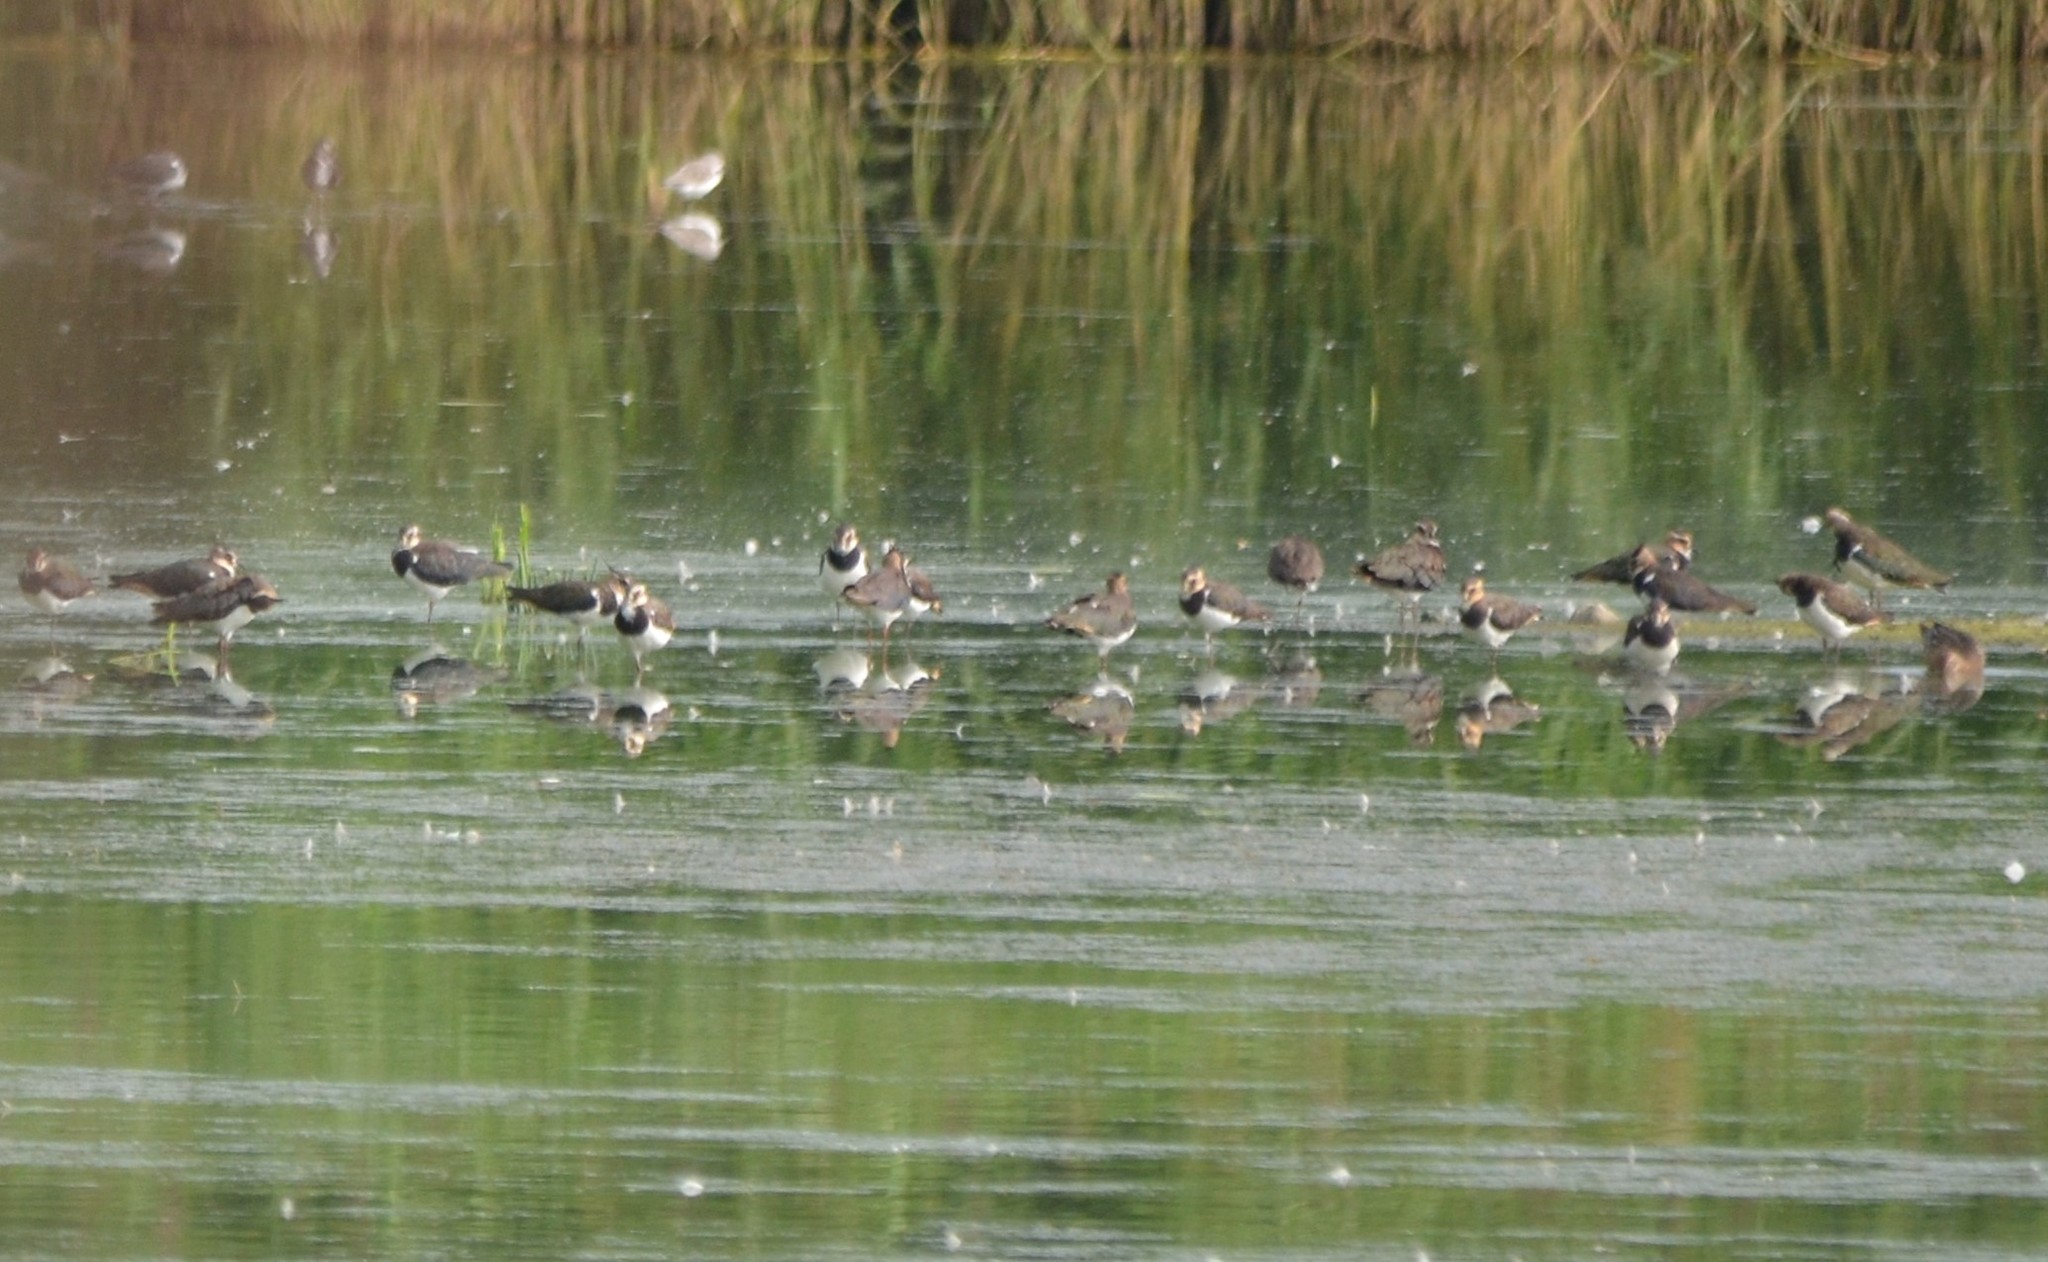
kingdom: Animalia
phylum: Chordata
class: Aves
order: Charadriiformes
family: Charadriidae
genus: Vanellus
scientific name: Vanellus vanellus
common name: Northern lapwing
